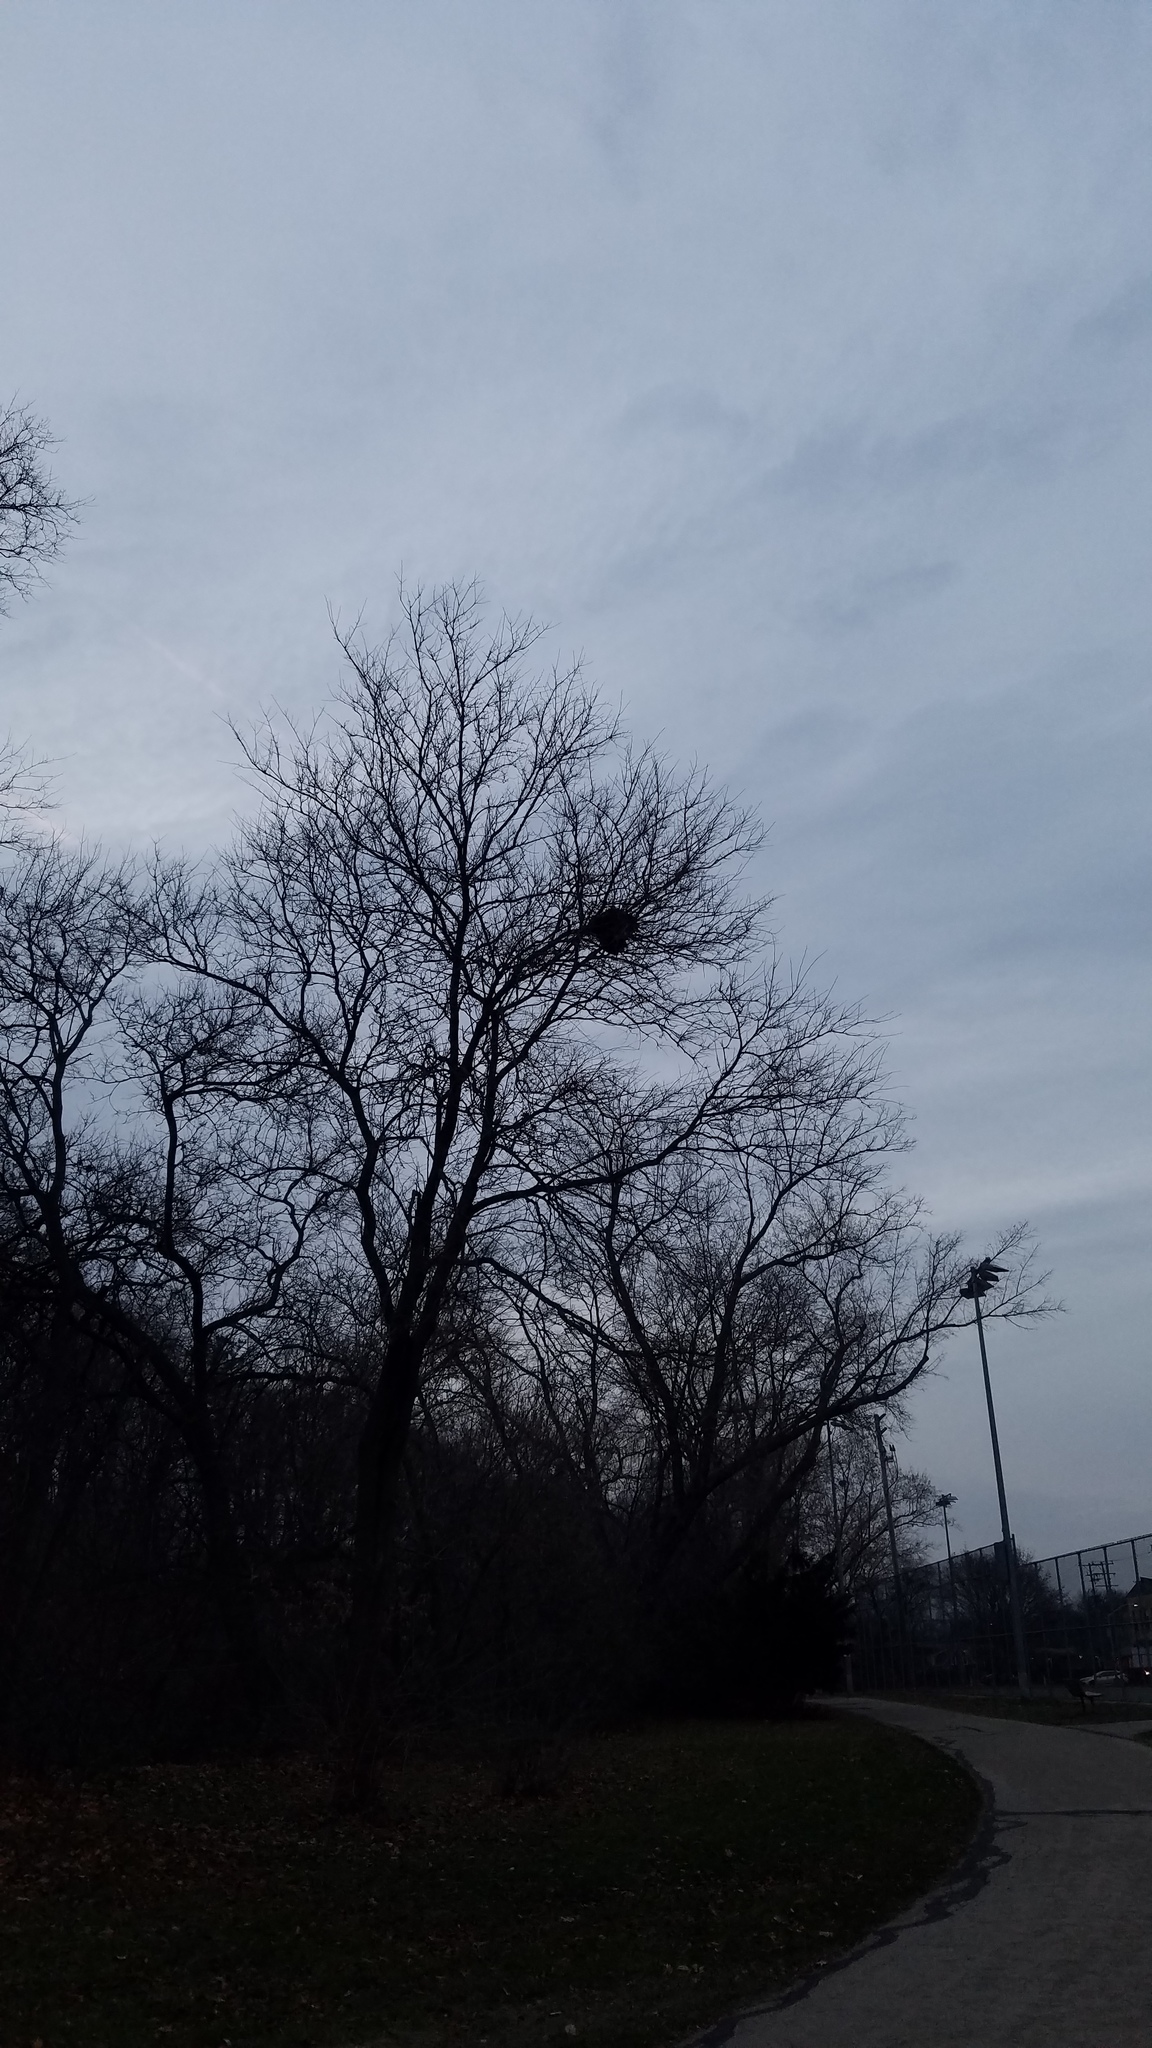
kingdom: Animalia
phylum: Chordata
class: Mammalia
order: Rodentia
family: Sciuridae
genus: Sciurus
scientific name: Sciurus carolinensis
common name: Eastern gray squirrel
